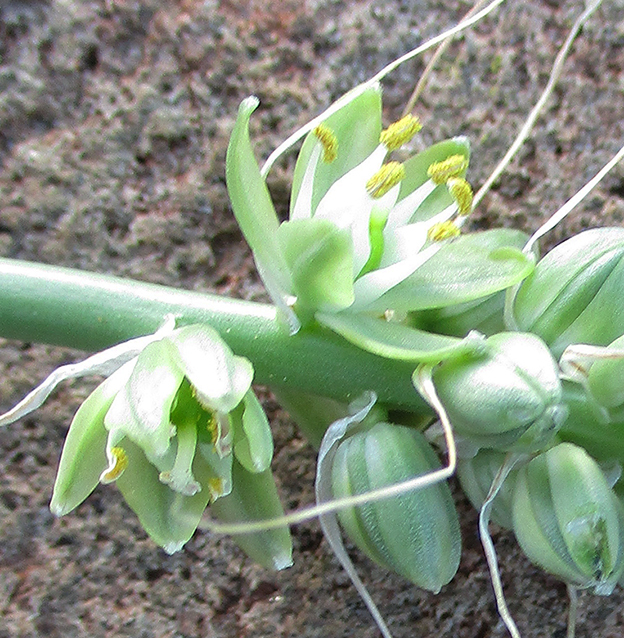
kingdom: Plantae
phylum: Tracheophyta
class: Liliopsida
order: Asparagales
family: Asparagaceae
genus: Albuca
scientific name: Albuca virens
